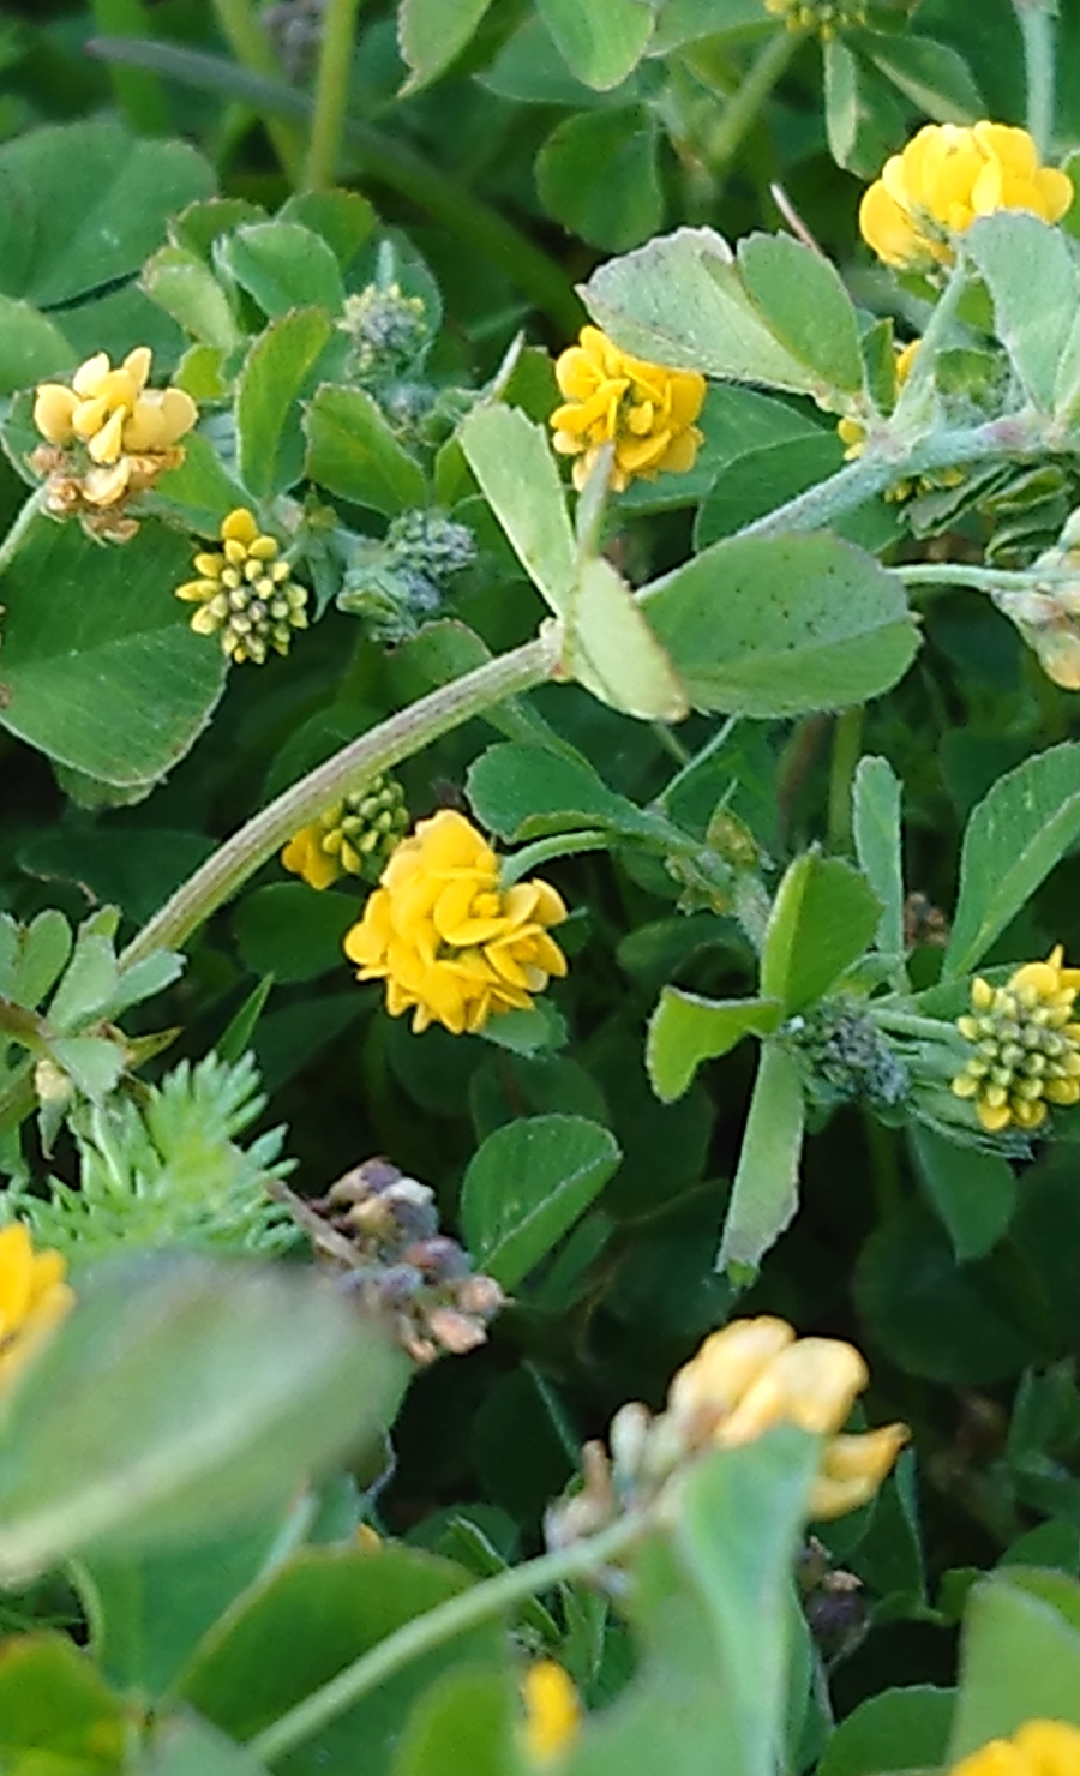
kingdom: Plantae
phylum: Tracheophyta
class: Magnoliopsida
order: Fabales
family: Fabaceae
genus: Medicago
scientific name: Medicago lupulina
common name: Black medick
